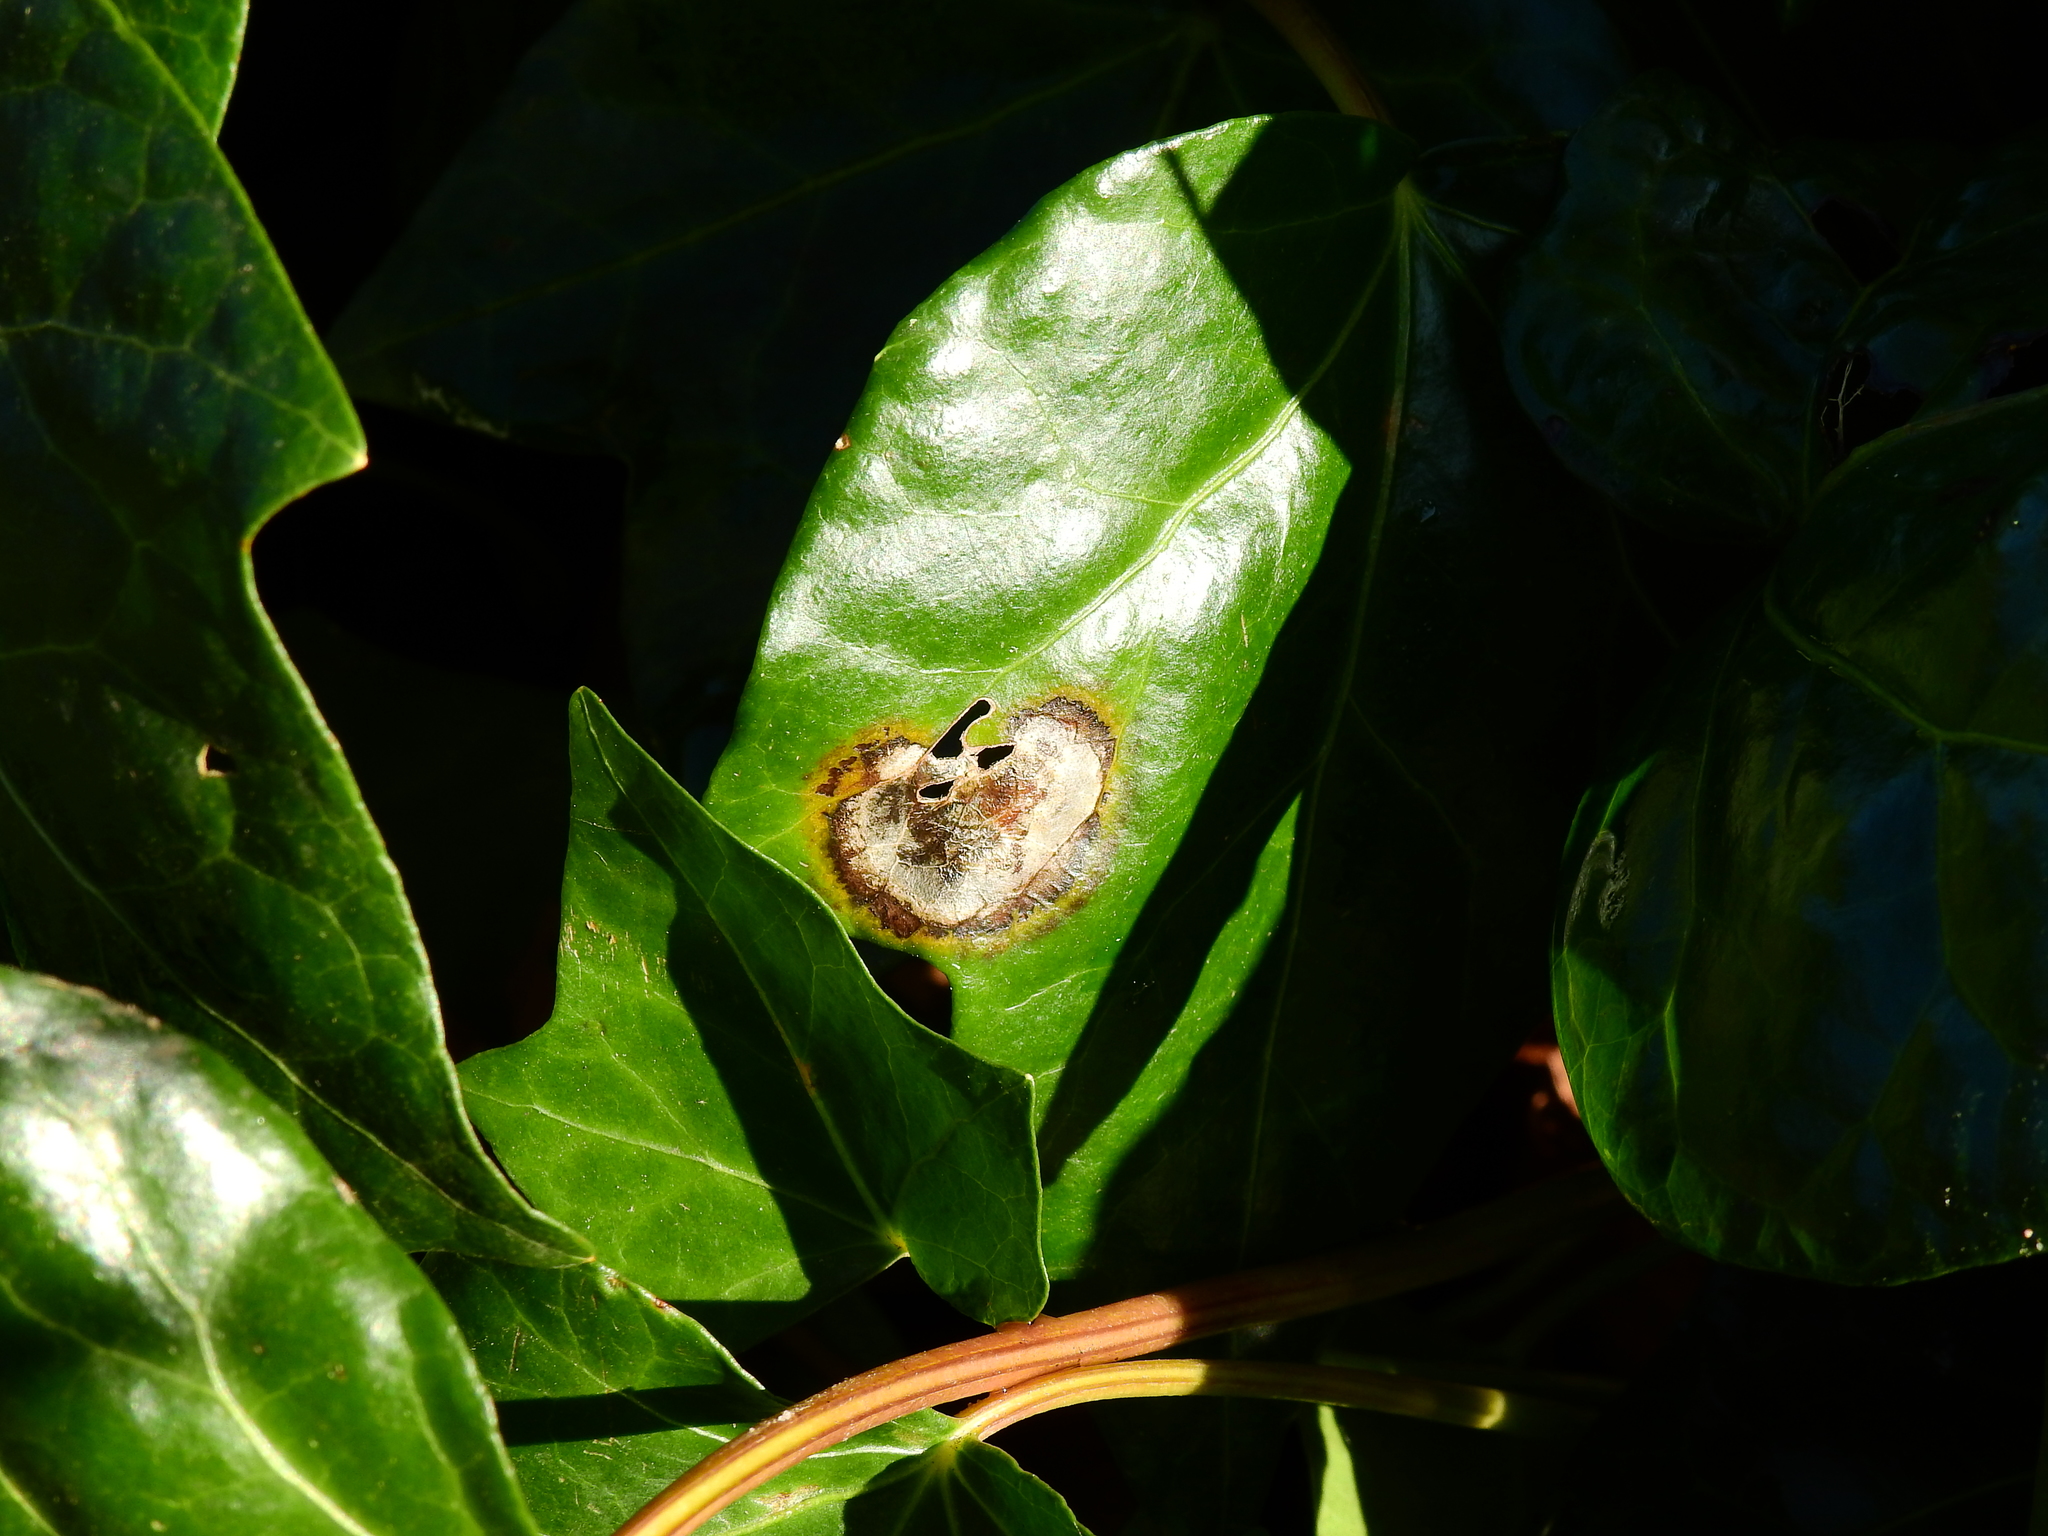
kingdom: Fungi
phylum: Ascomycota
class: Dothideomycetes
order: Pleosporales
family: Didymellaceae
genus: Boeremia
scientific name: Boeremia hedericola
